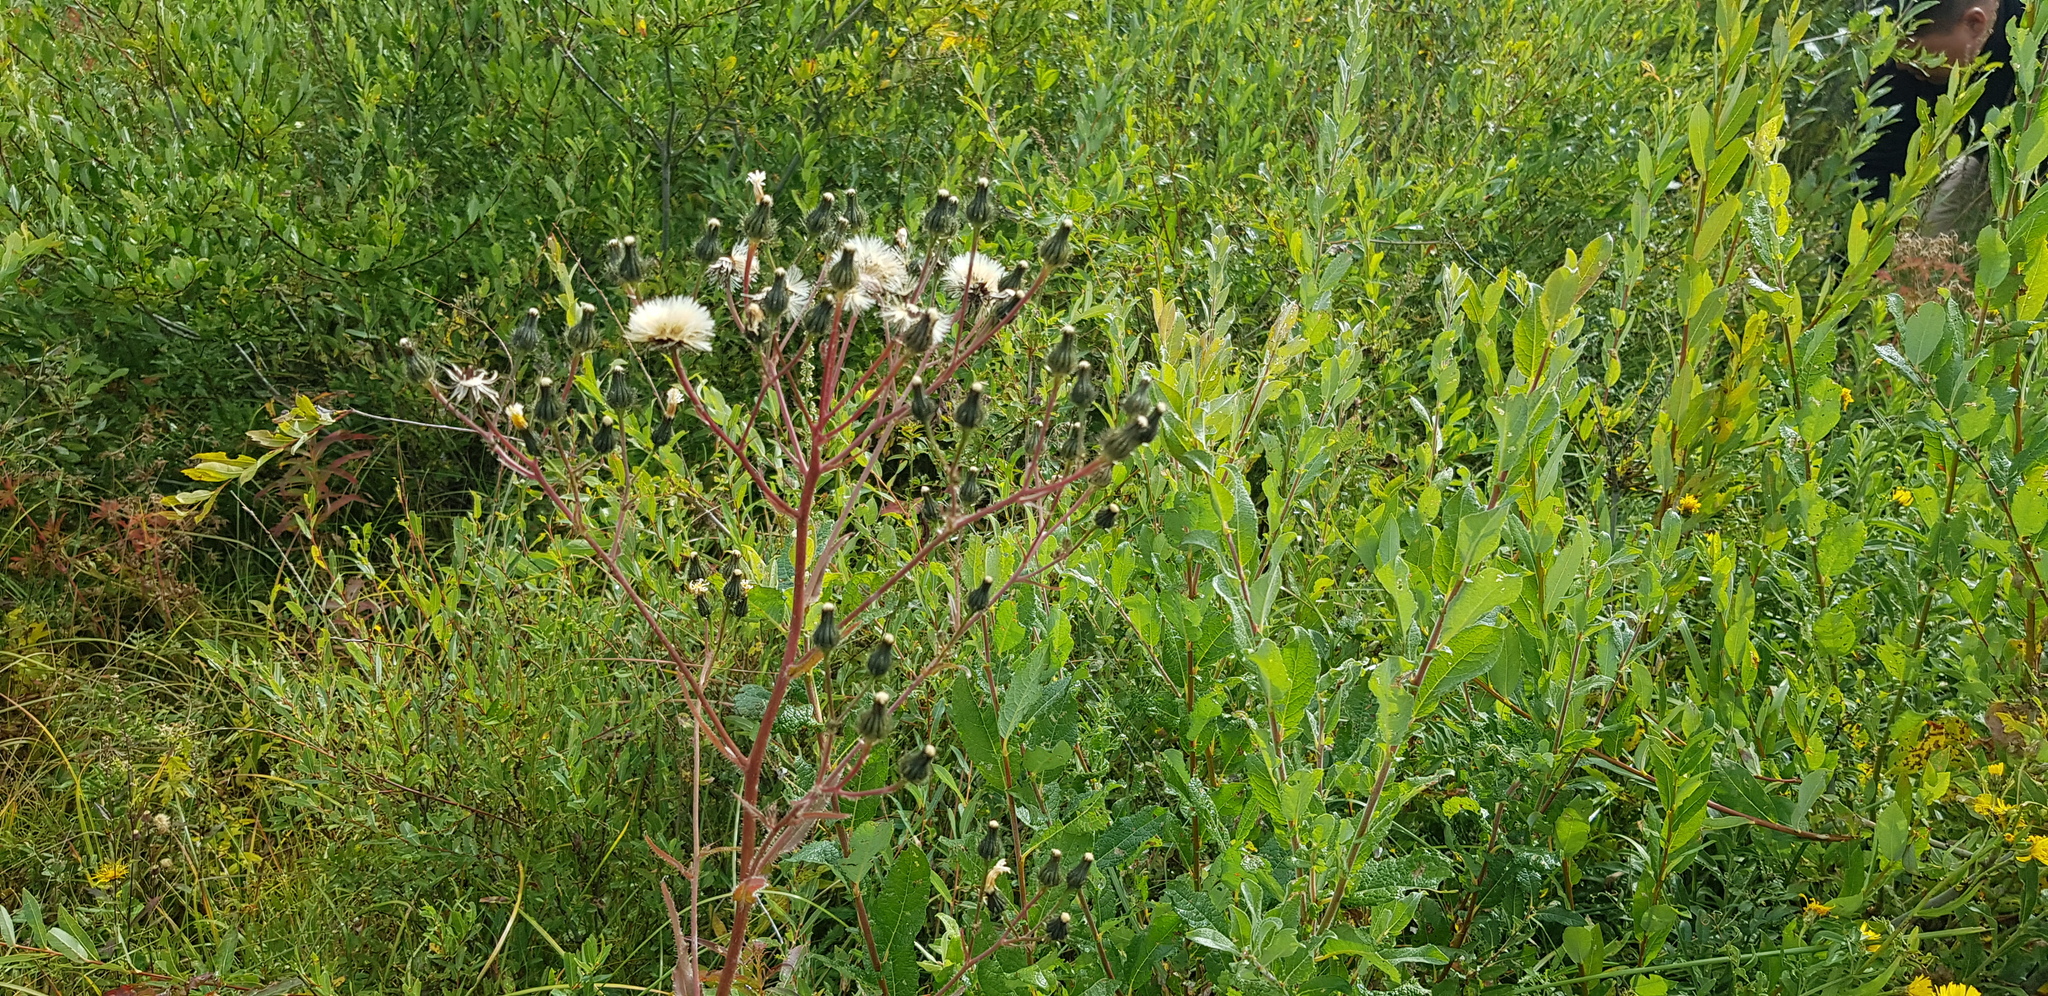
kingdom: Plantae
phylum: Tracheophyta
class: Magnoliopsida
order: Asterales
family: Asteraceae
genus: Crepis
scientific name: Crepis sibirica
